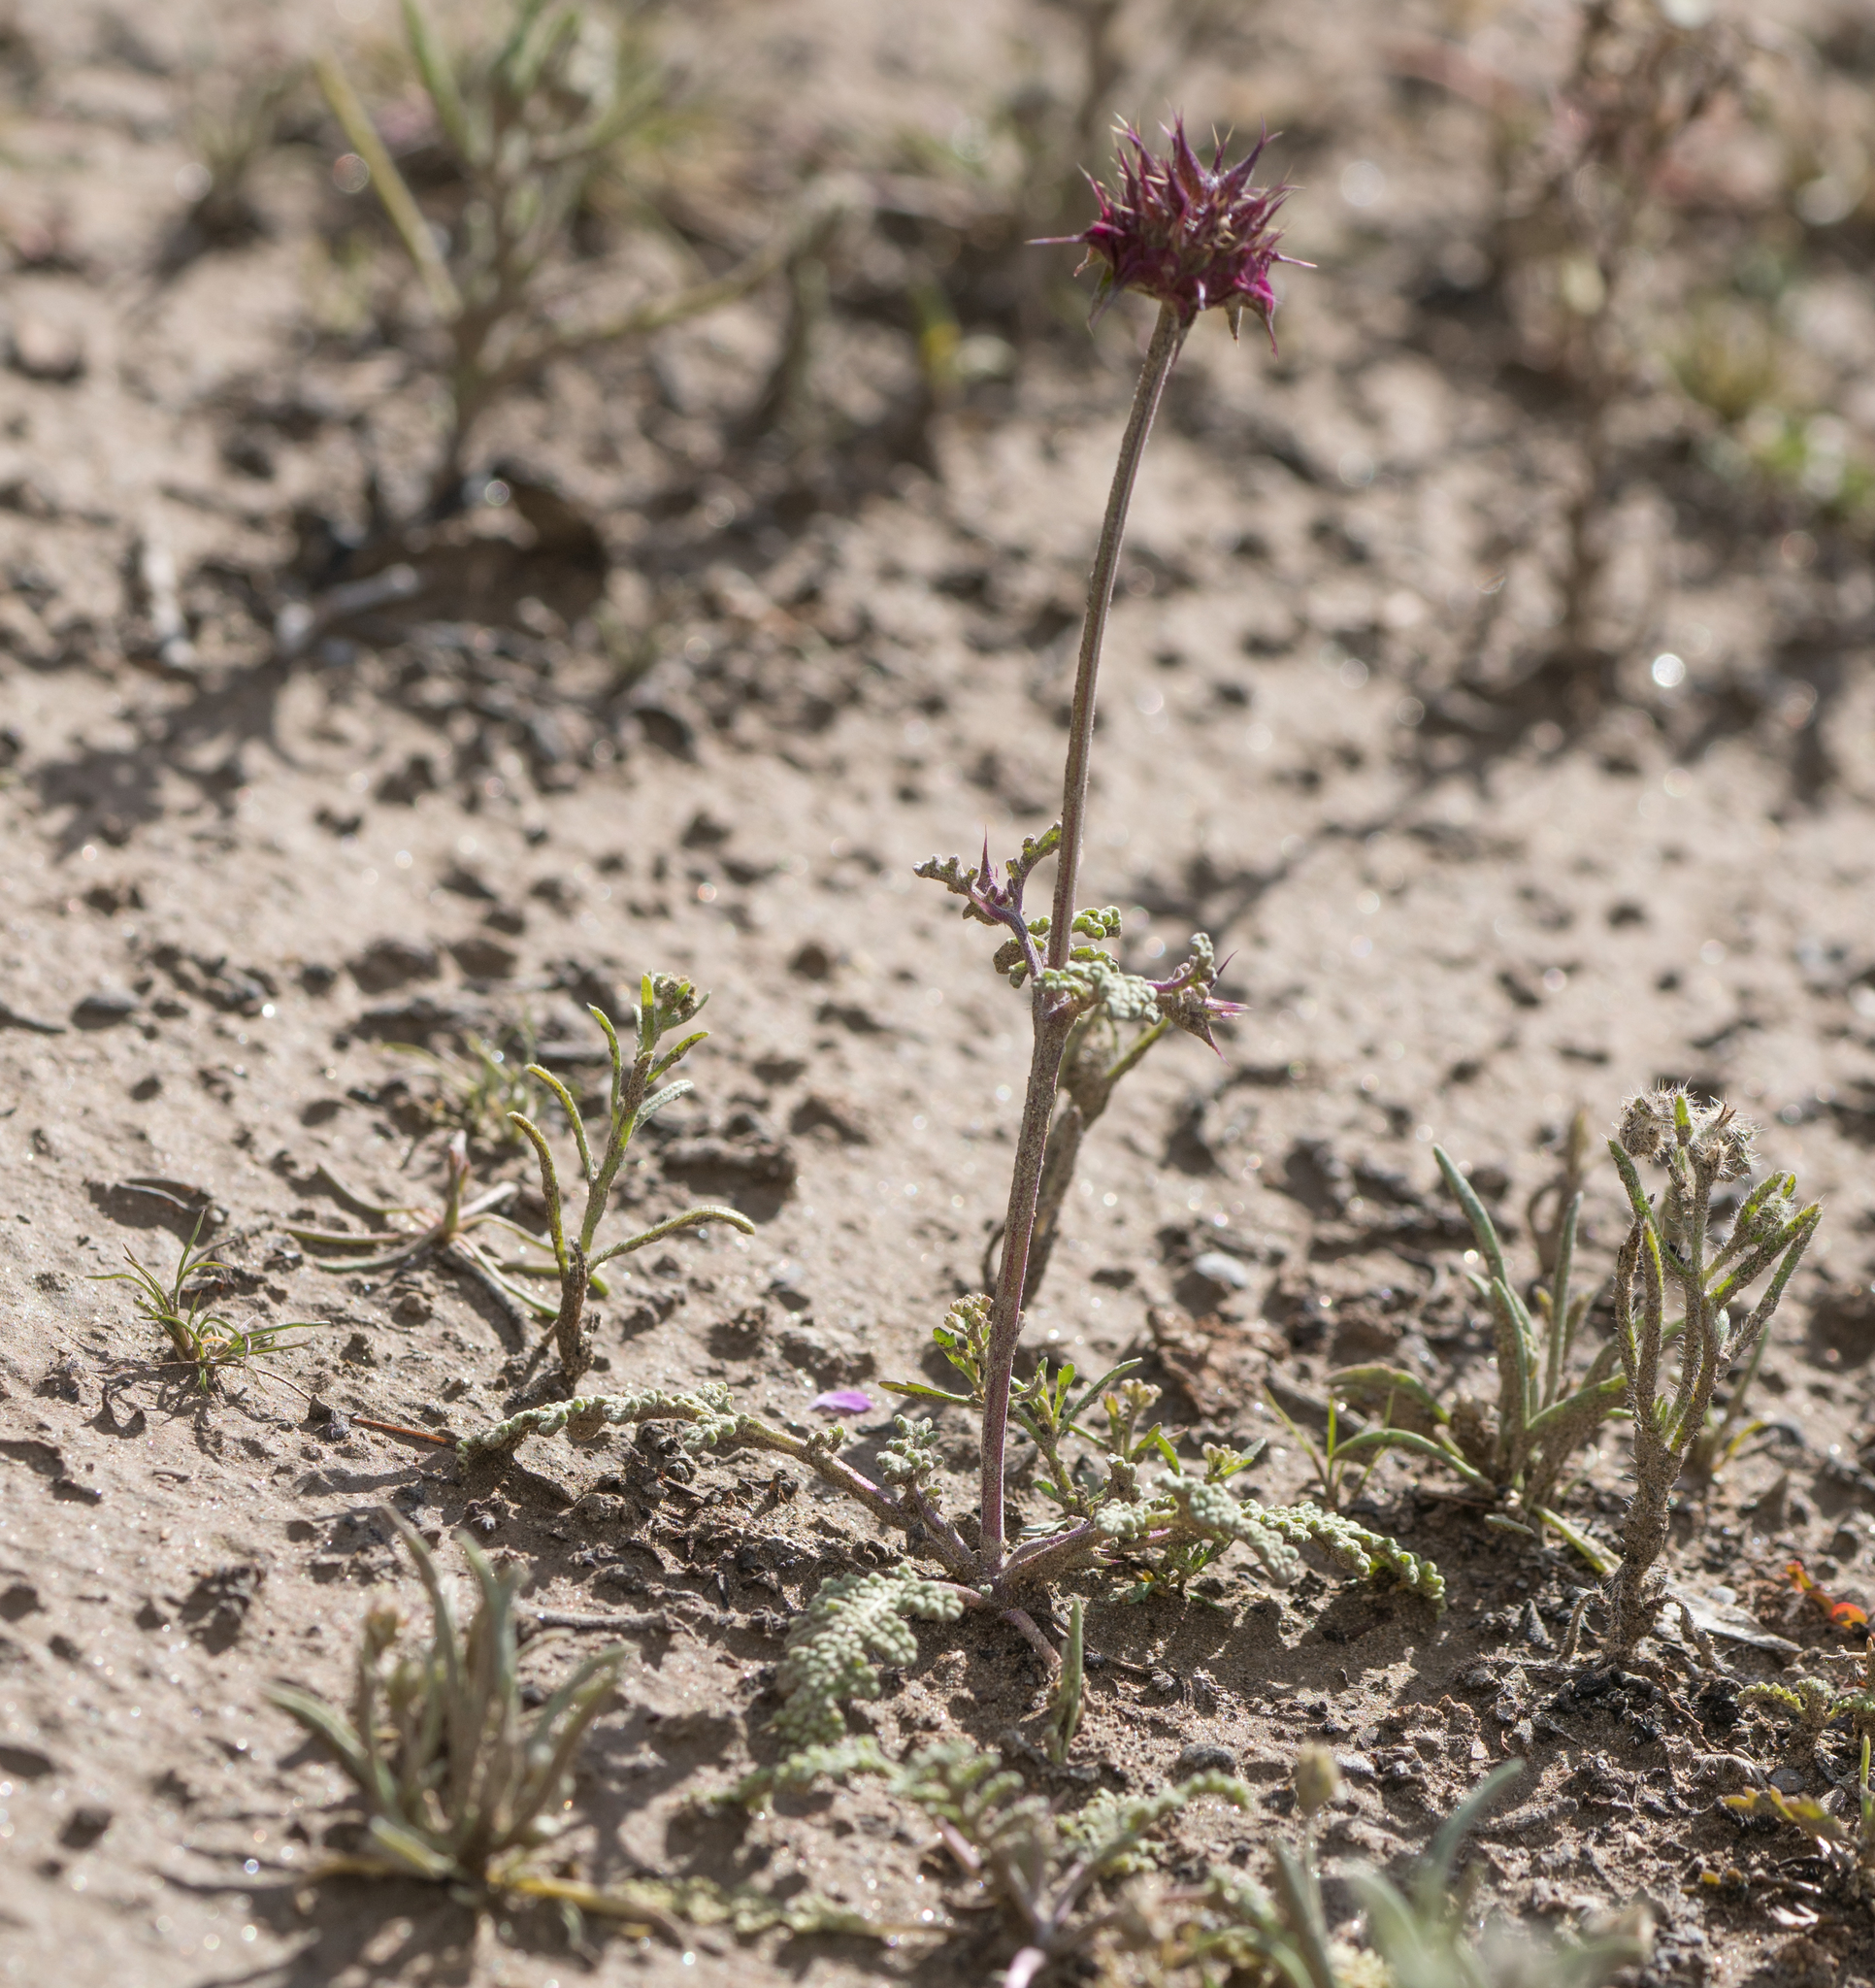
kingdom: Plantae
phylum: Tracheophyta
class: Magnoliopsida
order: Lamiales
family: Lamiaceae
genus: Salvia
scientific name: Salvia columbariae
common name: Chia
